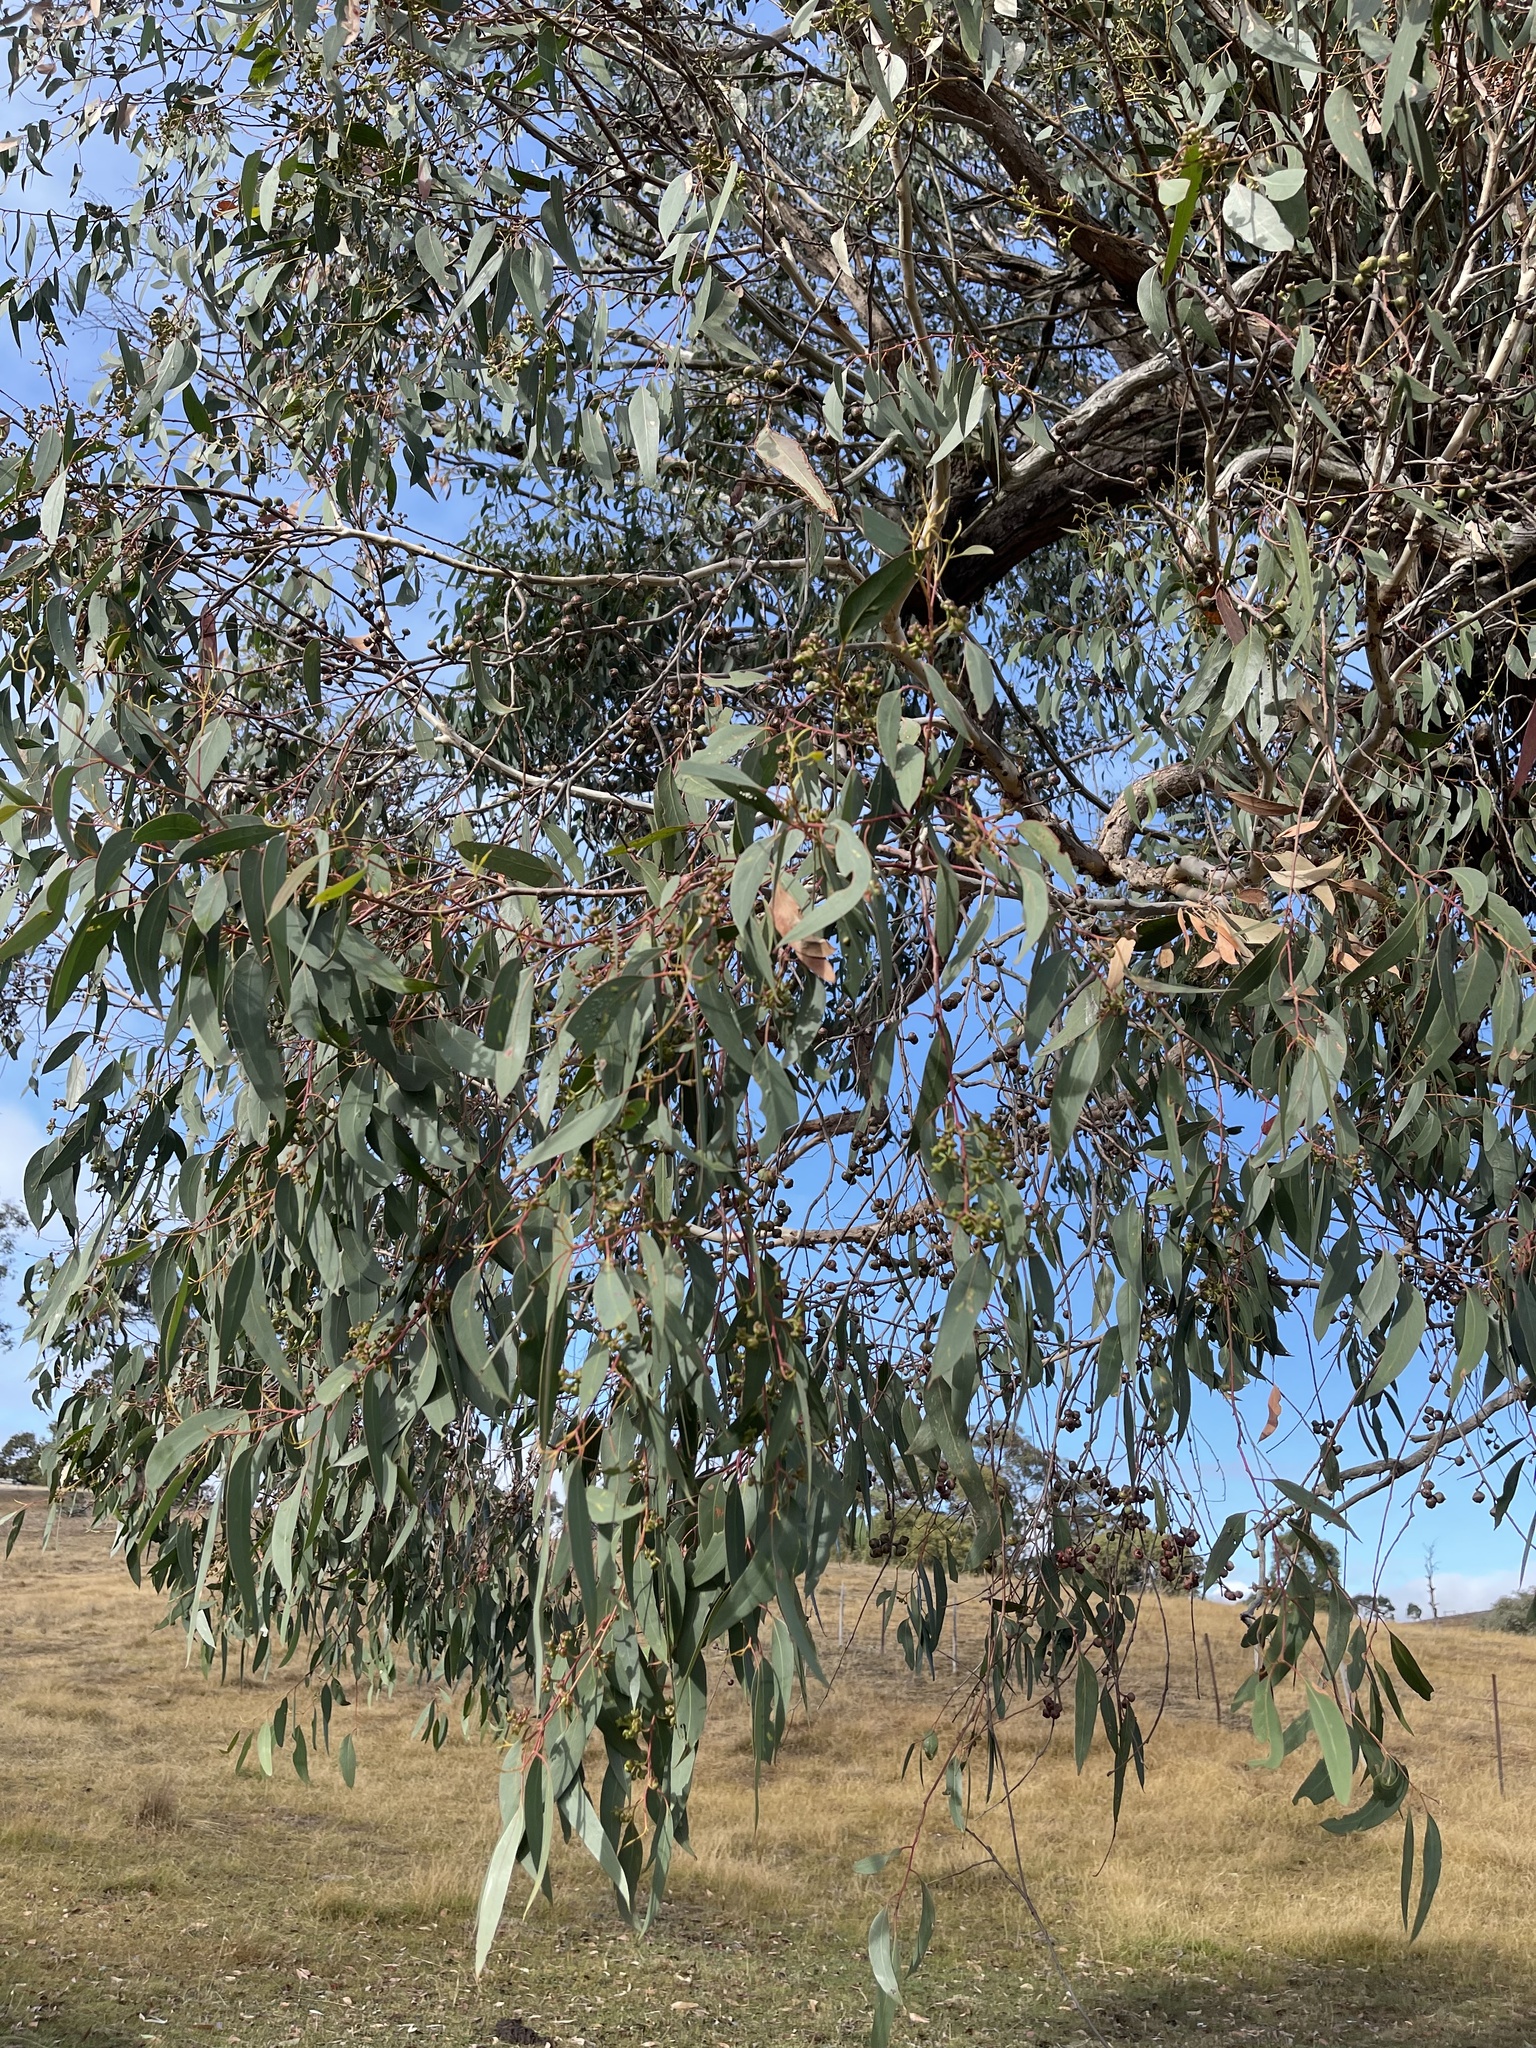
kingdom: Plantae
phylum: Tracheophyta
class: Magnoliopsida
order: Myrtales
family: Myrtaceae
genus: Eucalyptus
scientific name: Eucalyptus macrorhyncha
